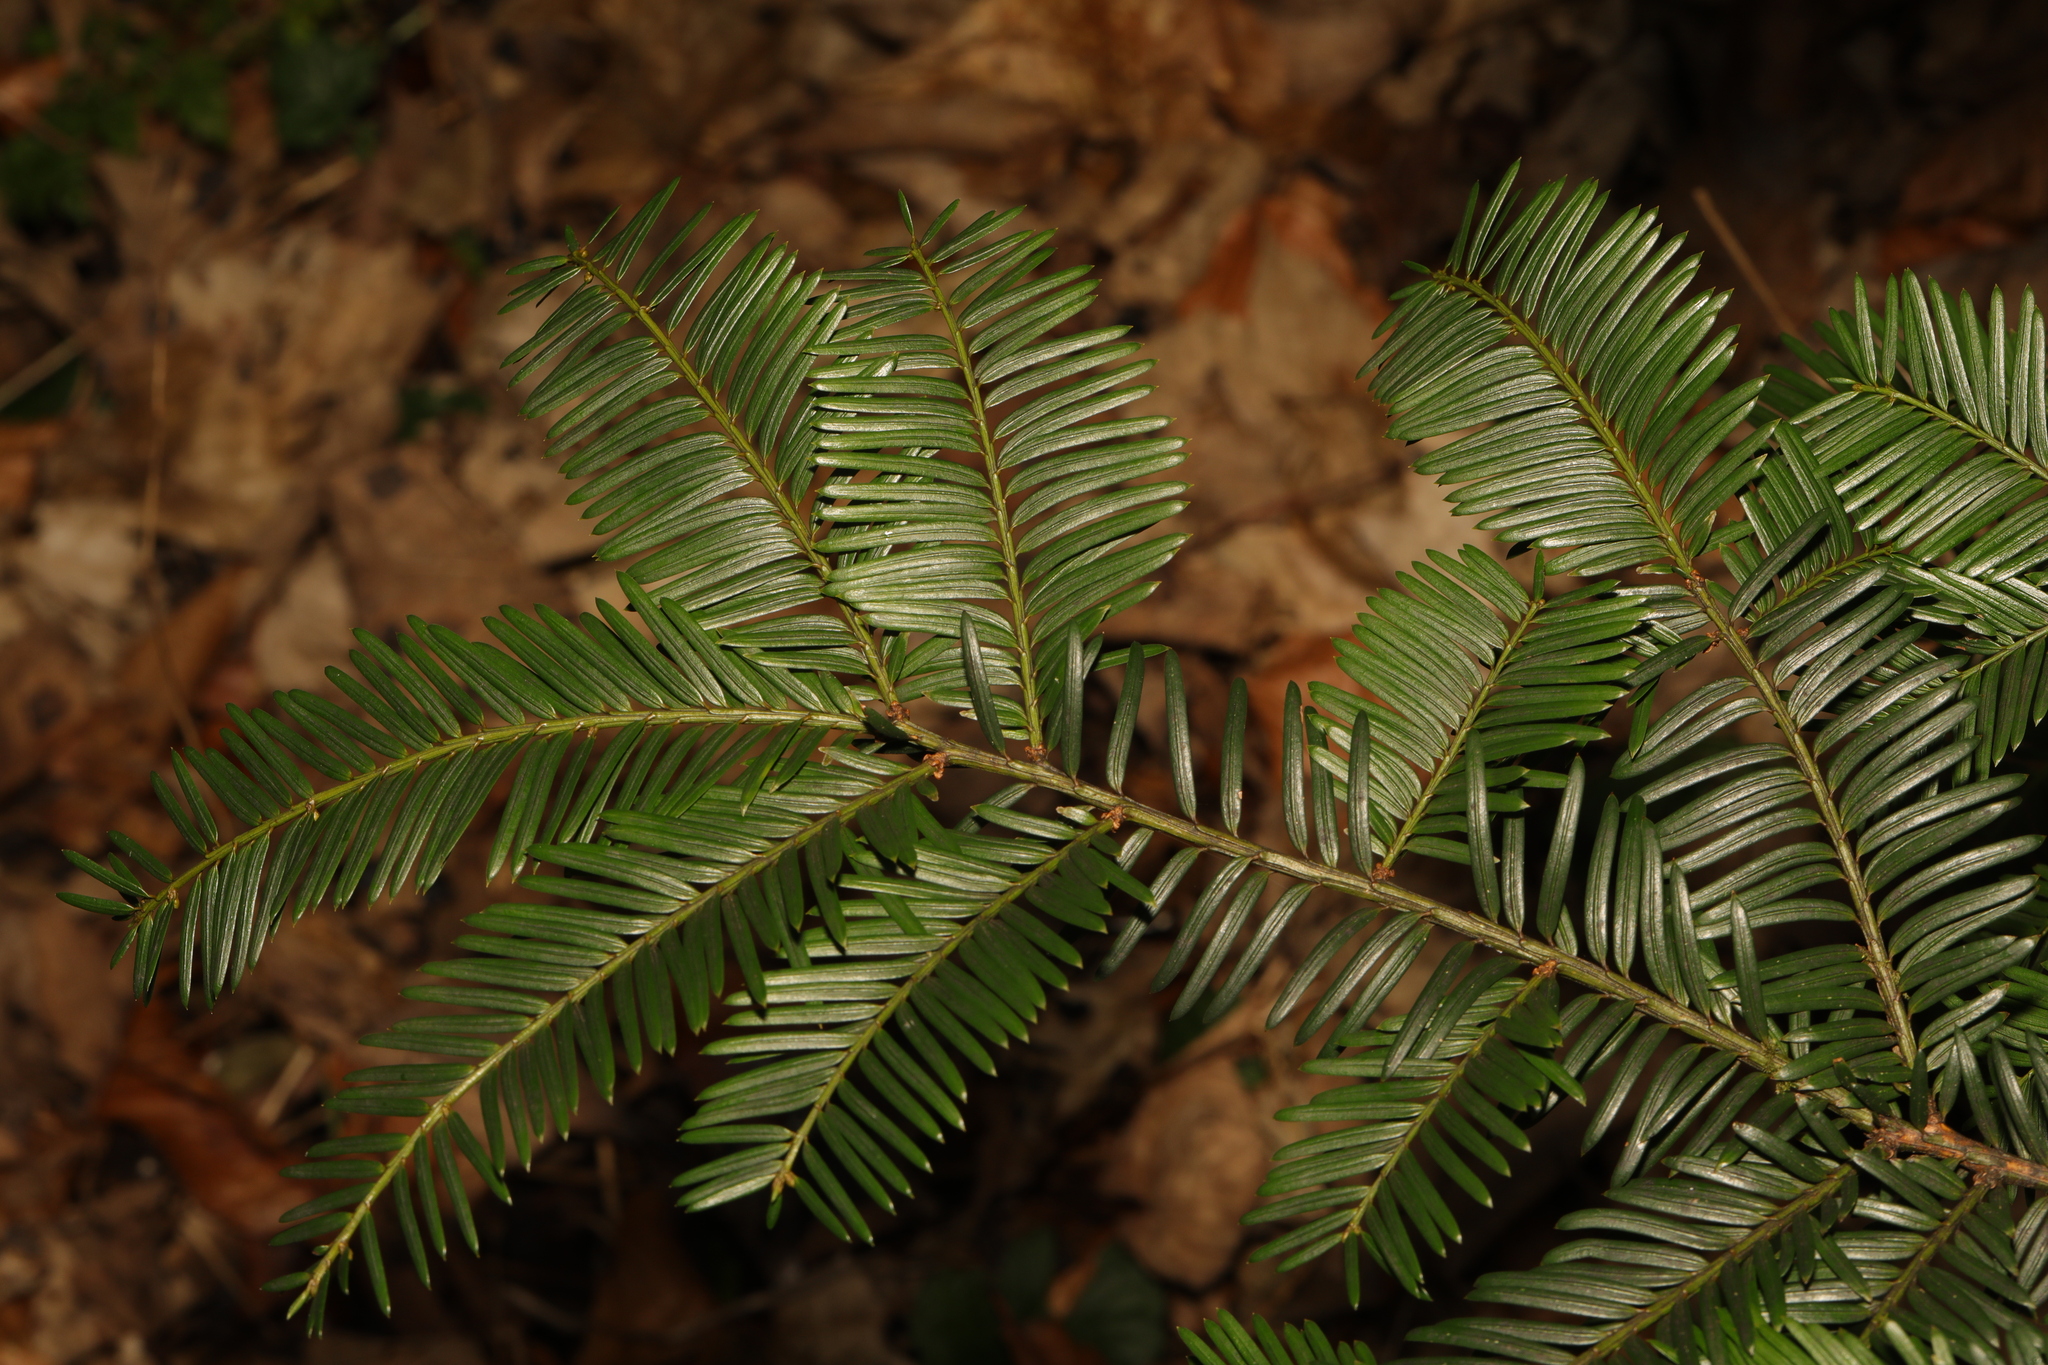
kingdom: Plantae
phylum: Tracheophyta
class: Pinopsida
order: Pinales
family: Taxaceae
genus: Taxus
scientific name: Taxus baccata
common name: Yew
